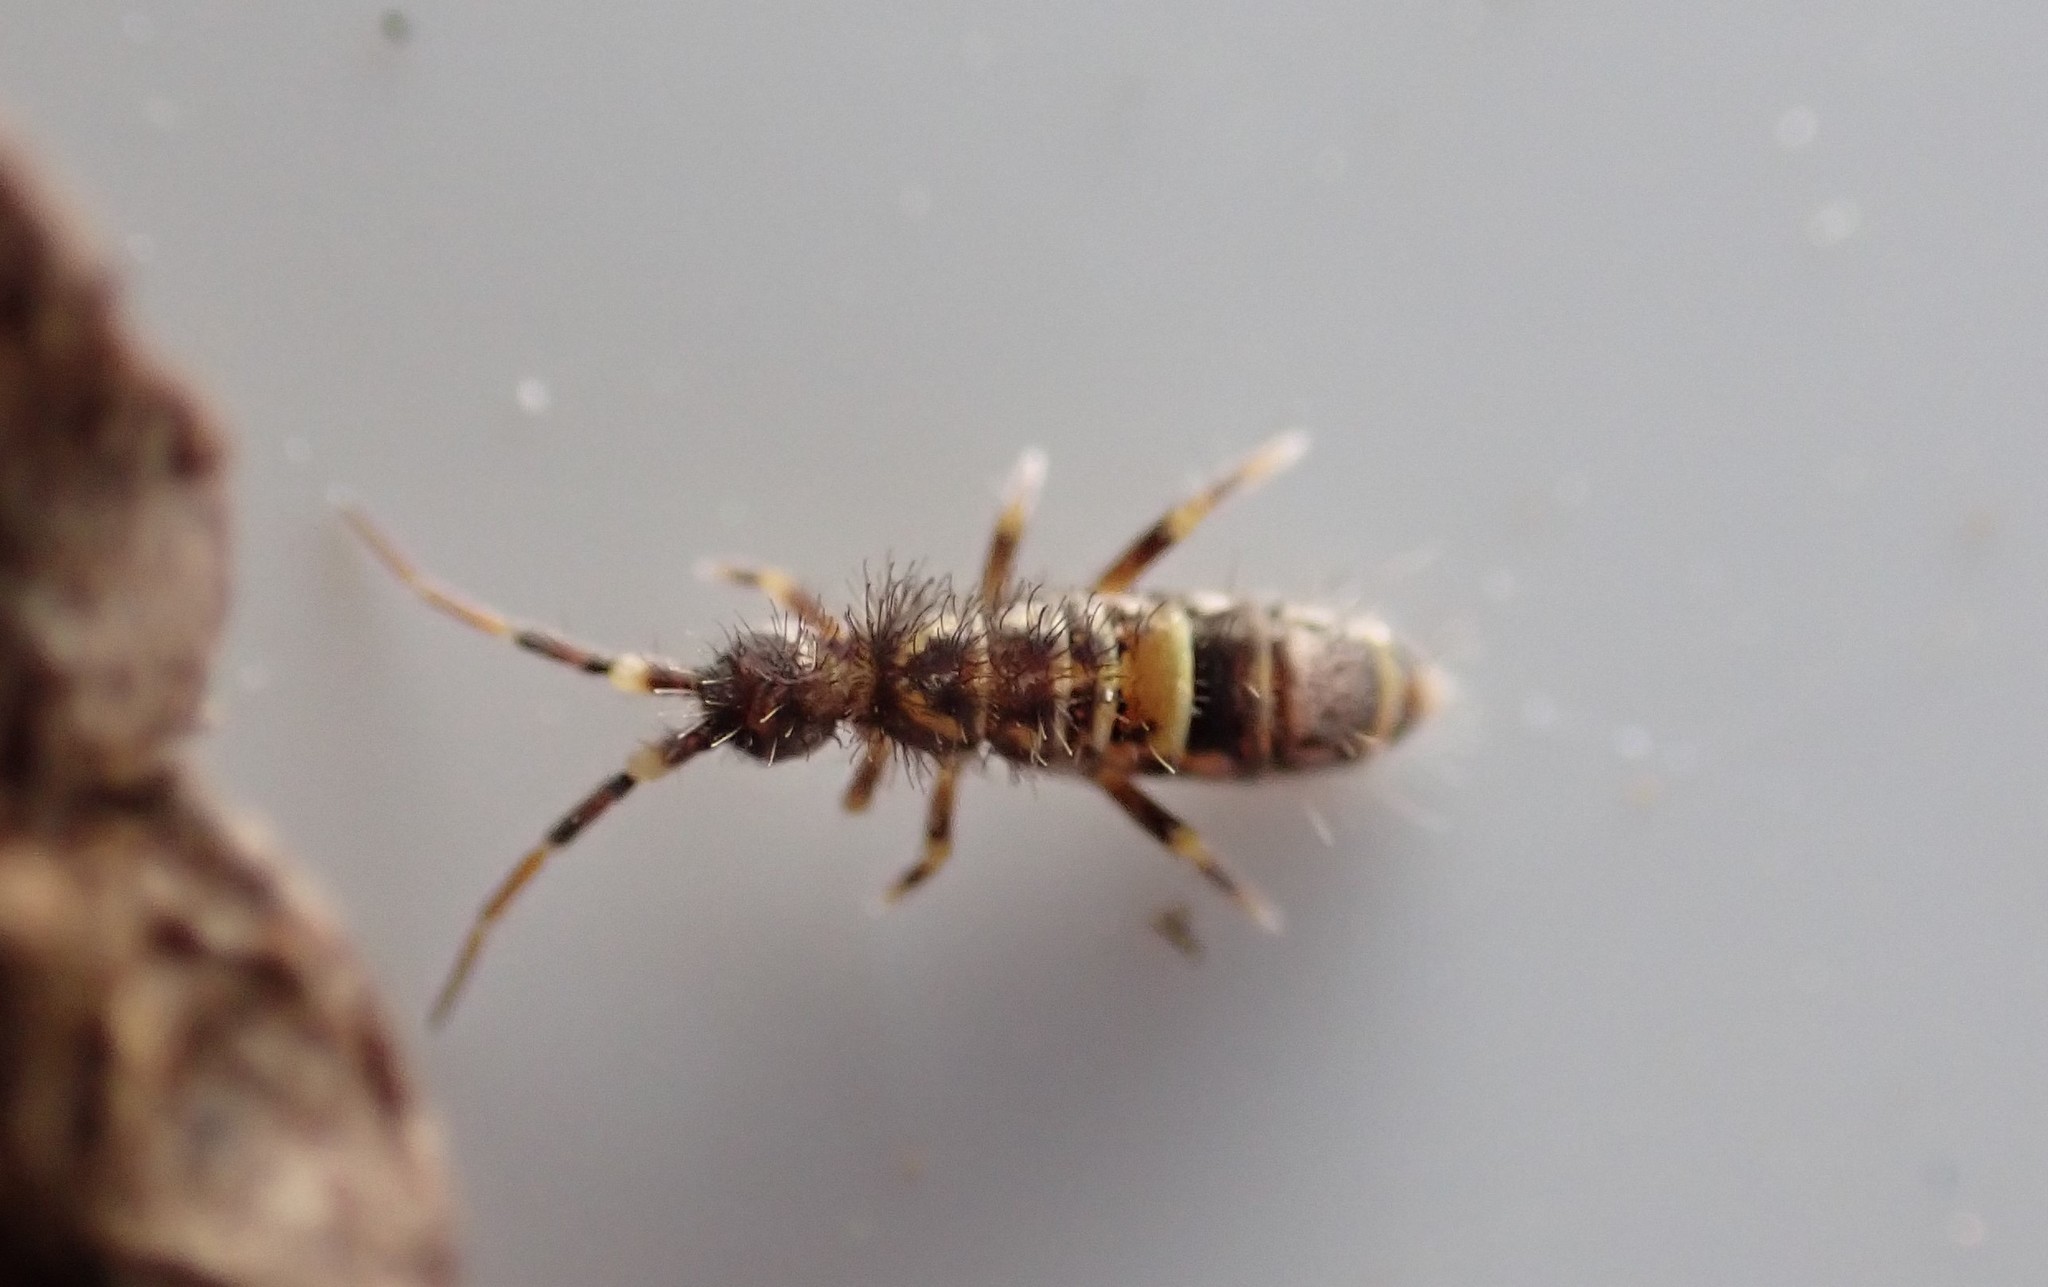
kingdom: Animalia
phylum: Arthropoda
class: Collembola
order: Entomobryomorpha
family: Orchesellidae
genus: Orchesella
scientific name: Orchesella cincta
